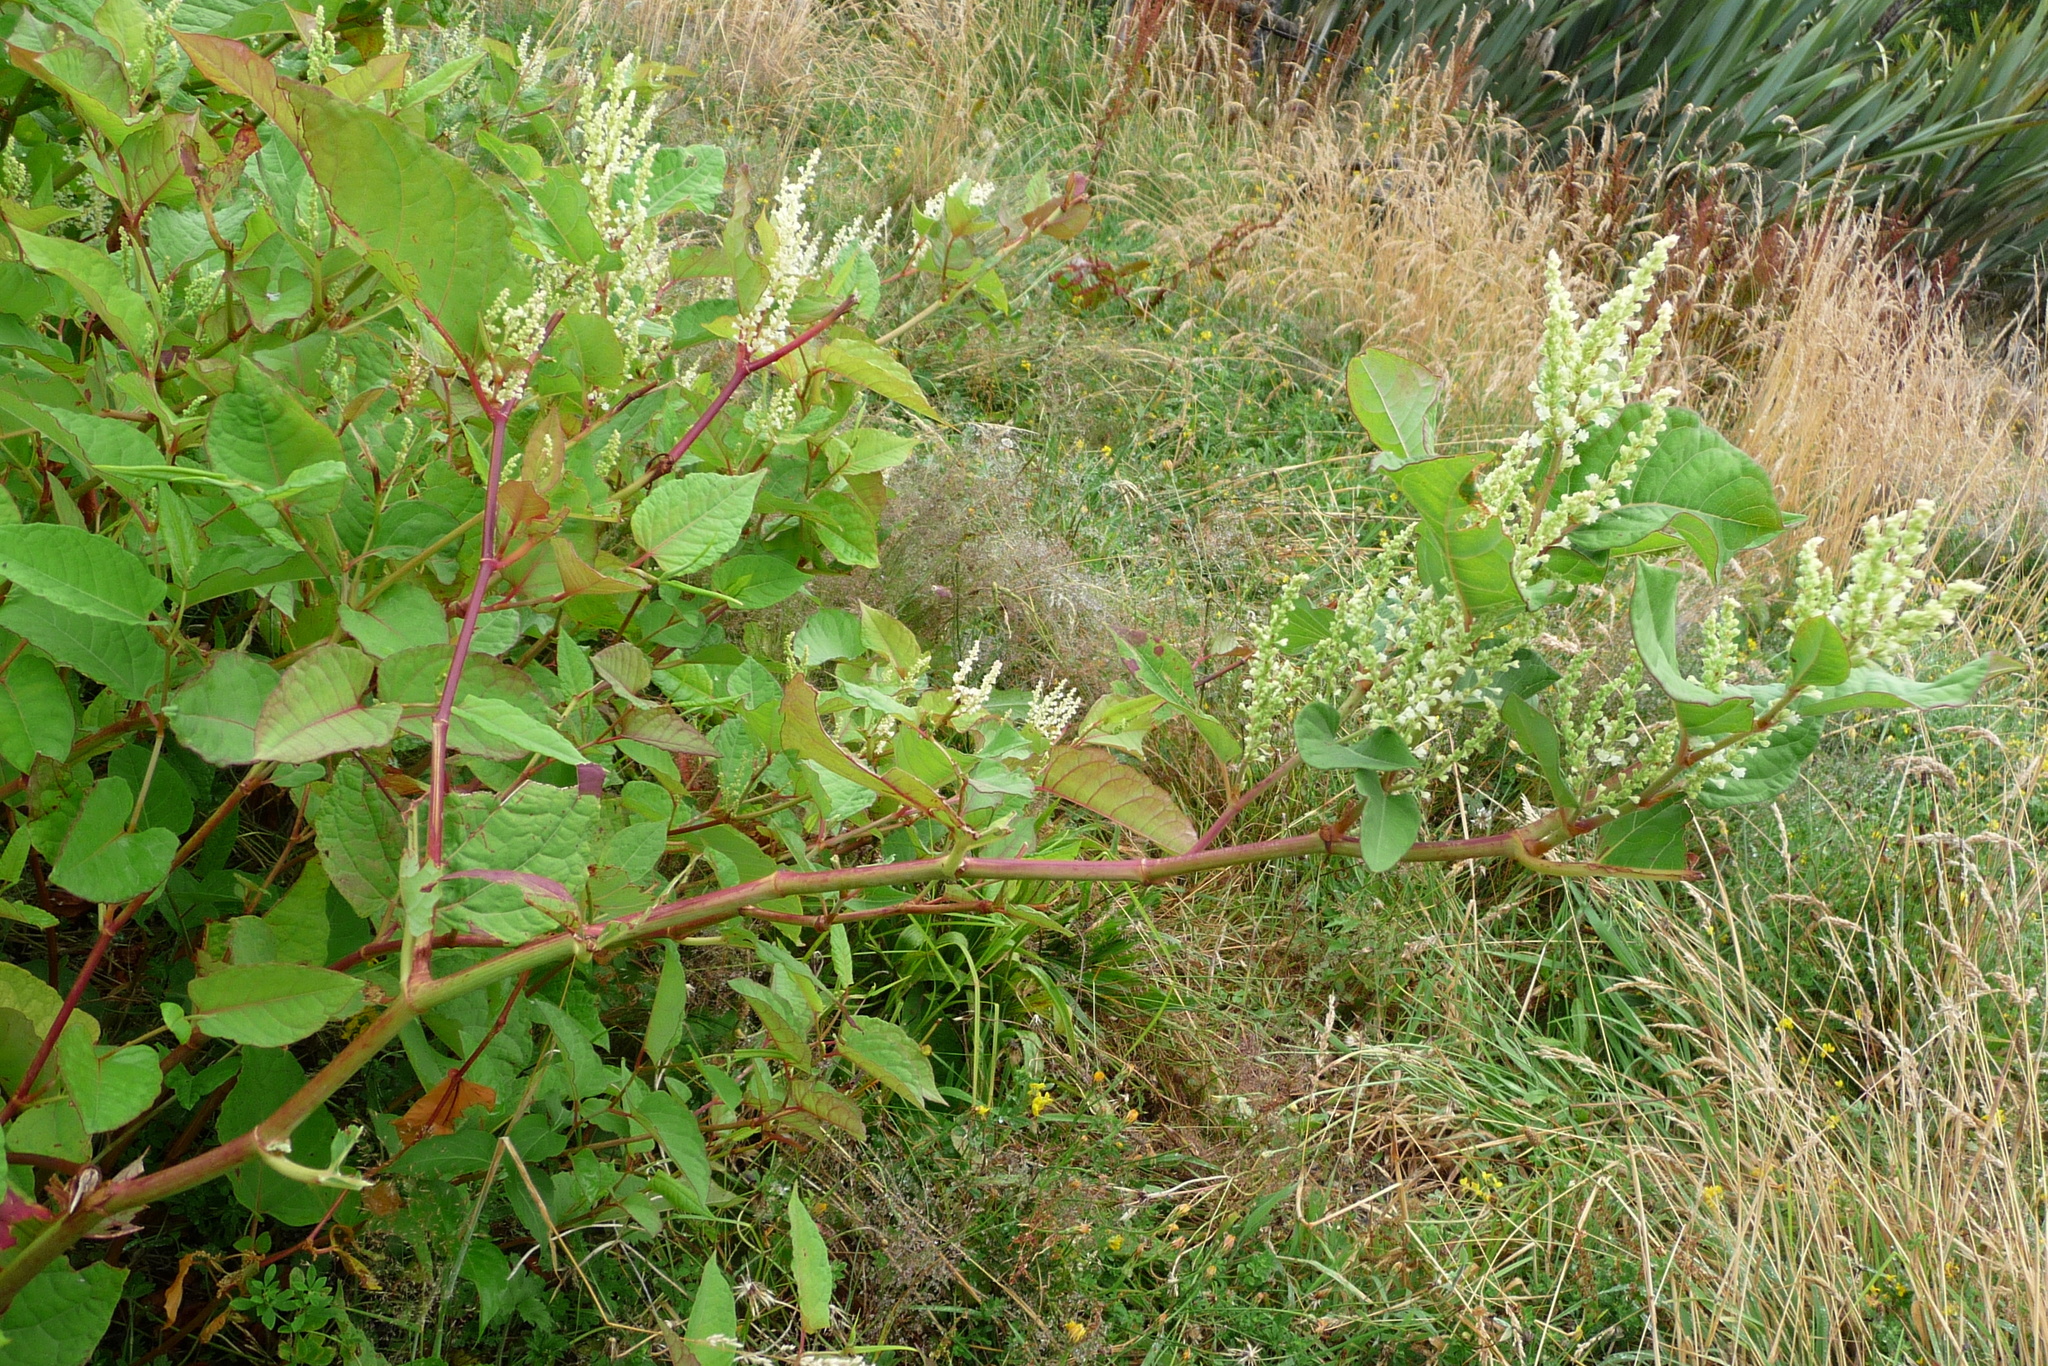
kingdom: Plantae
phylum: Tracheophyta
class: Magnoliopsida
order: Caryophyllales
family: Polygonaceae
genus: Reynoutria
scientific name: Reynoutria japonica
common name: Japanese knotweed
